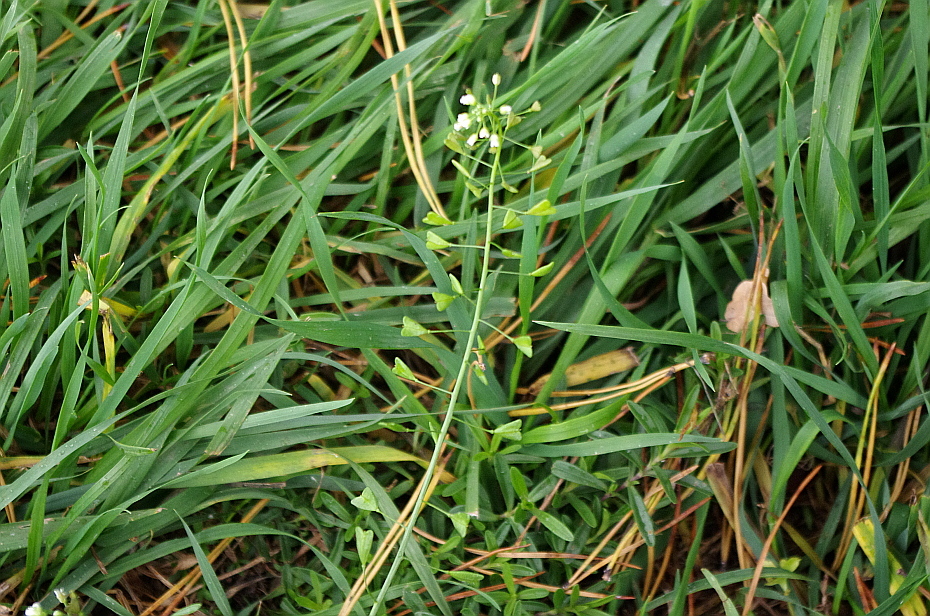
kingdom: Plantae
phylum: Tracheophyta
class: Magnoliopsida
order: Brassicales
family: Brassicaceae
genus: Capsella
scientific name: Capsella bursa-pastoris
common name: Shepherd's purse
